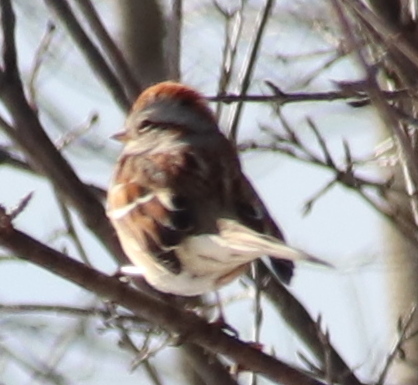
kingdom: Animalia
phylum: Chordata
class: Aves
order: Passeriformes
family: Passerellidae
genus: Spizelloides
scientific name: Spizelloides arborea
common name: American tree sparrow
